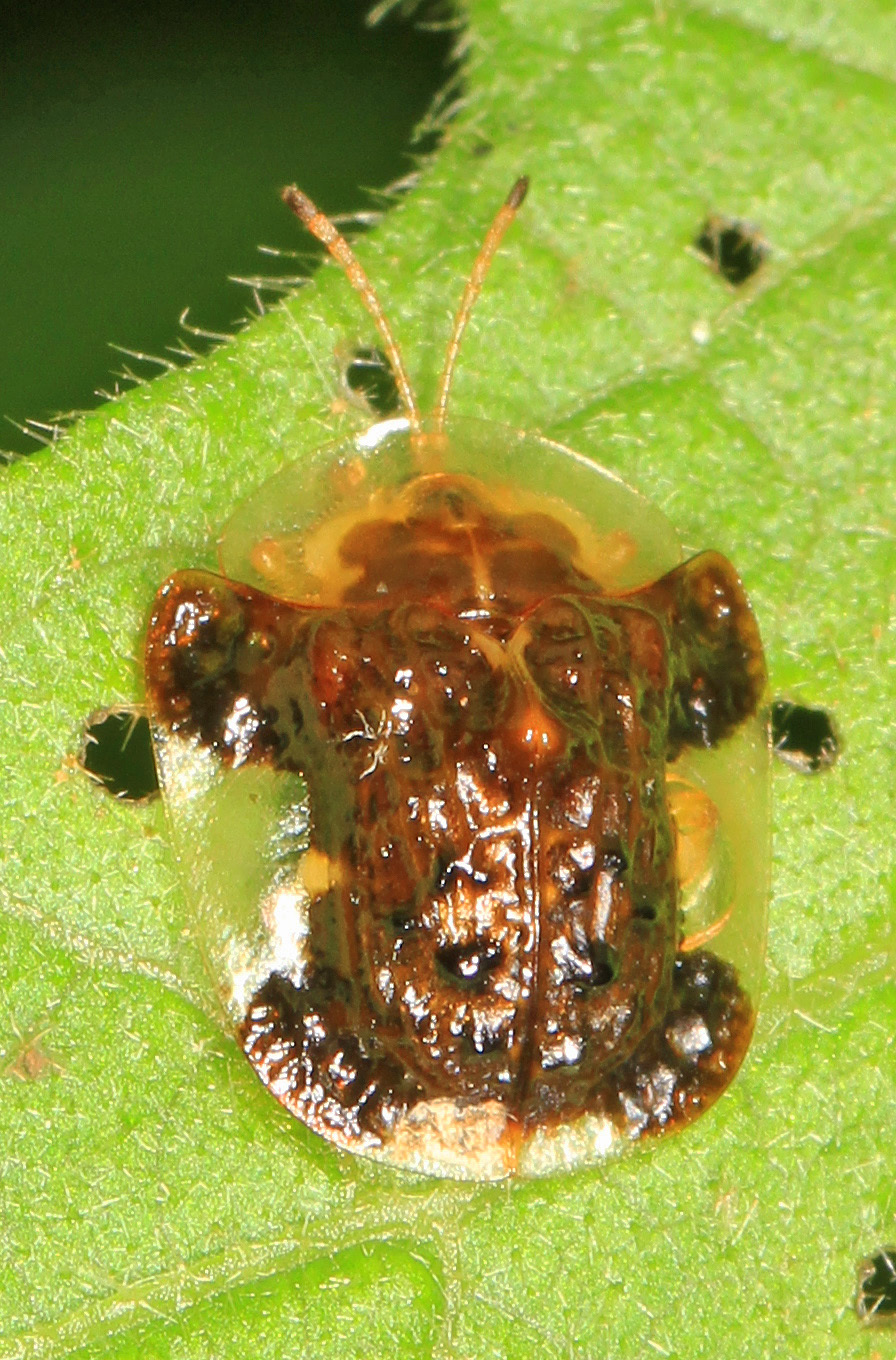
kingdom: Animalia
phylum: Arthropoda
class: Insecta
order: Coleoptera
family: Chrysomelidae
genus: Helocassis
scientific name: Helocassis clavata
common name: Clavate tortoise beetle
